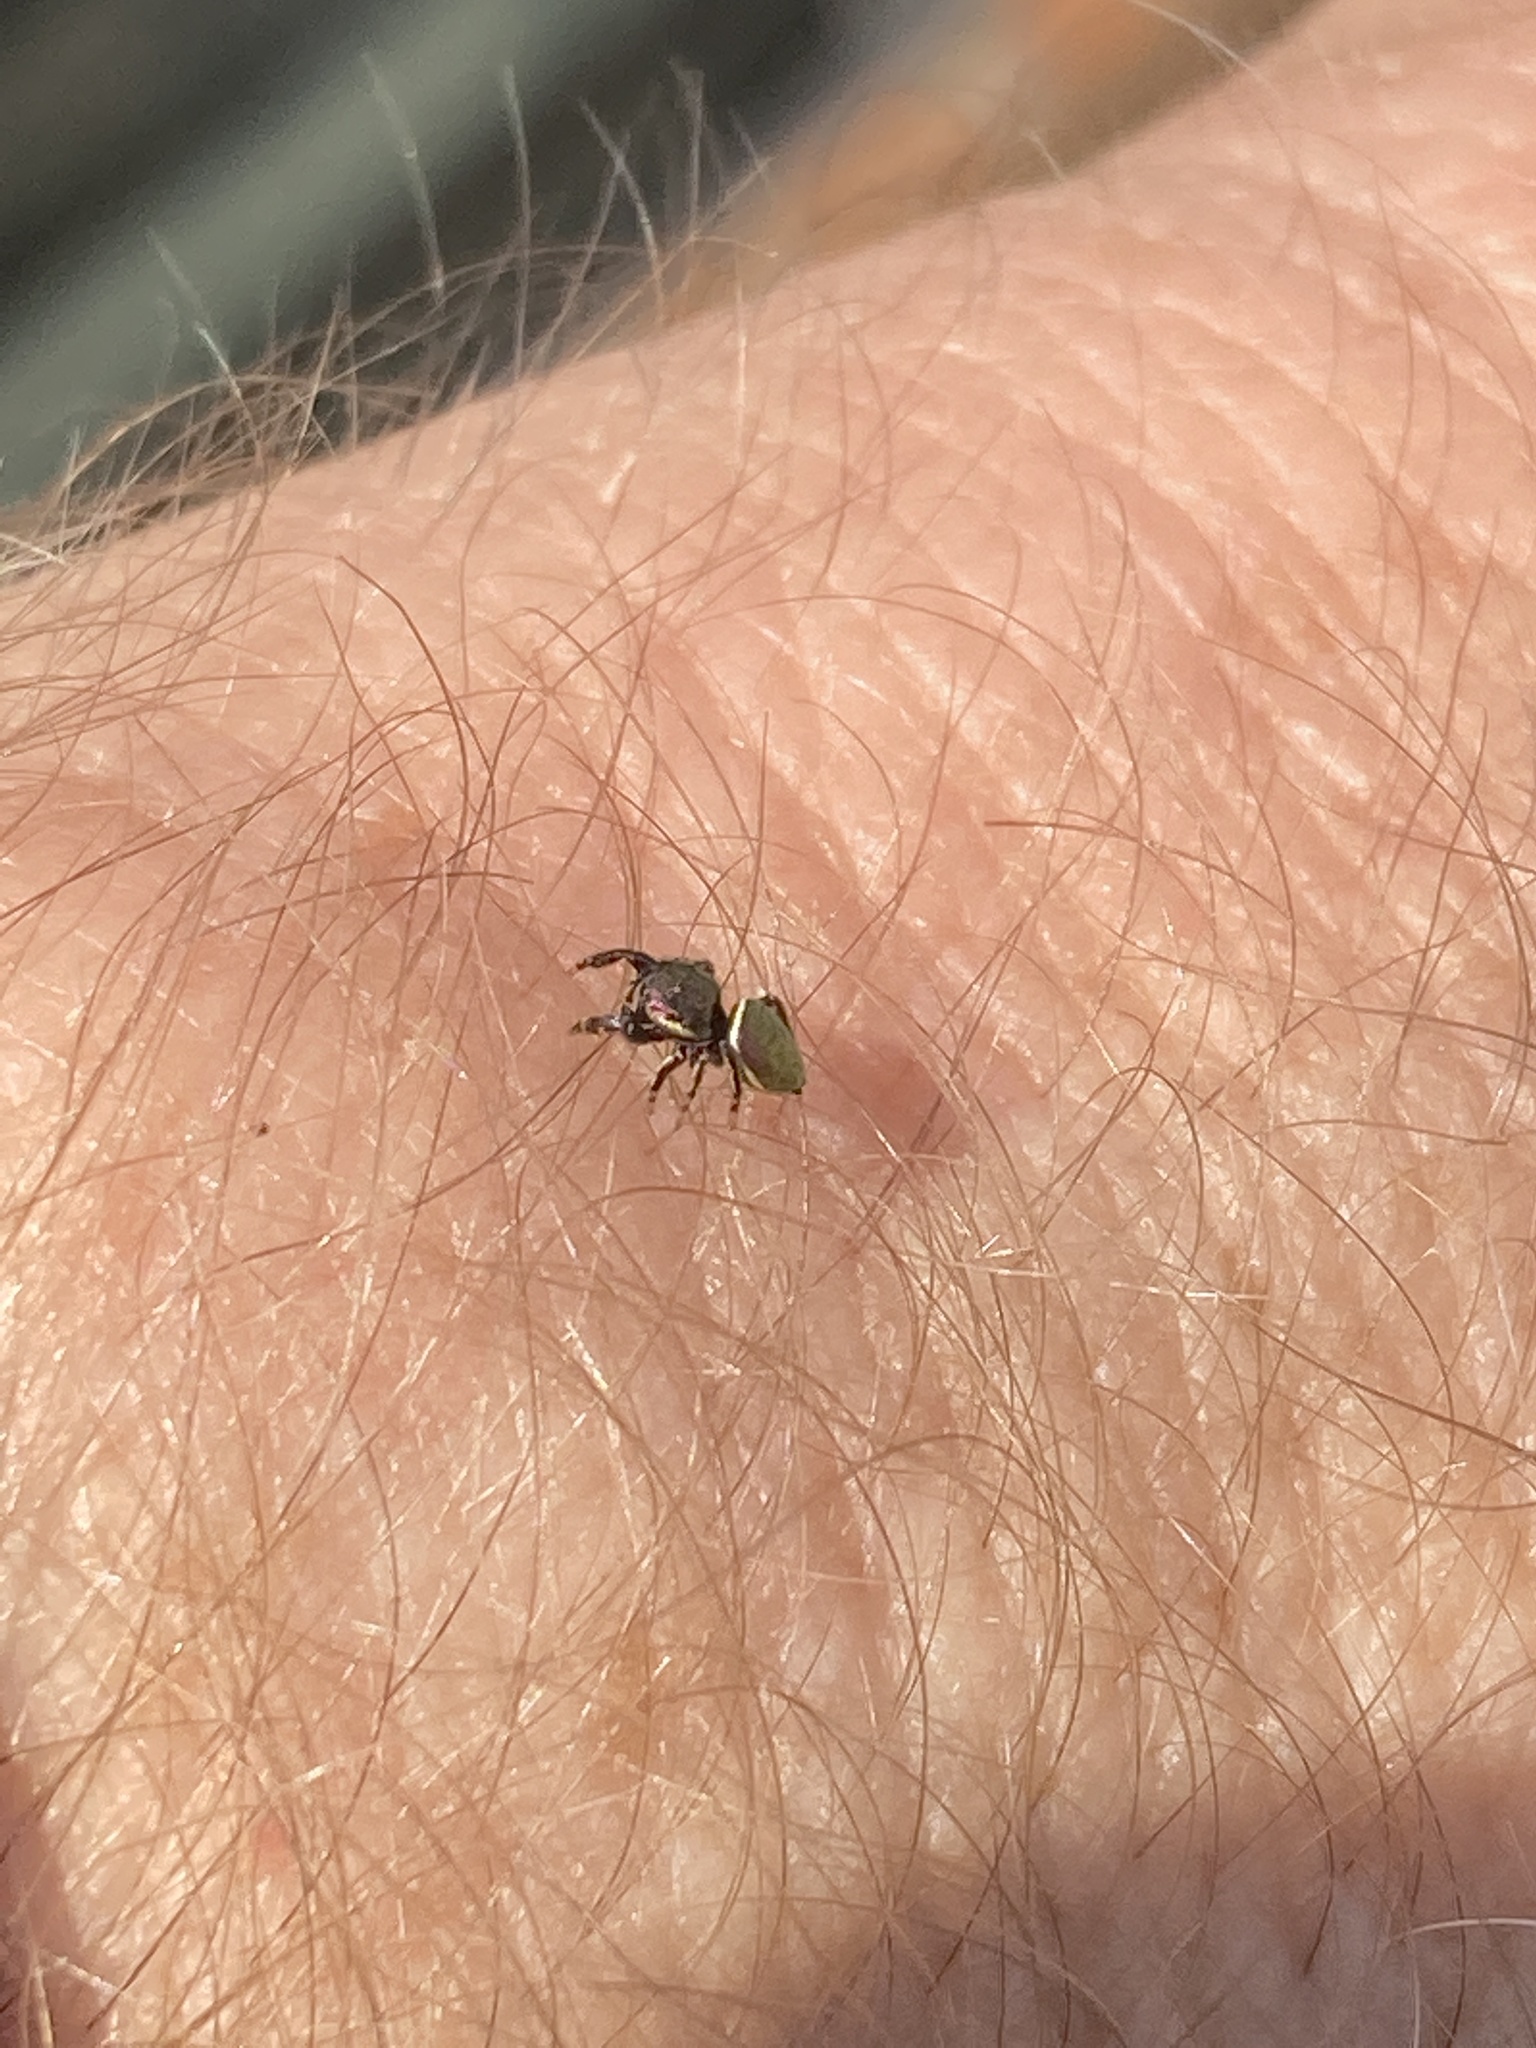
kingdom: Animalia
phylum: Arthropoda
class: Arachnida
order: Araneae
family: Salticidae
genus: Sassacus
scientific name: Sassacus papenhoei
